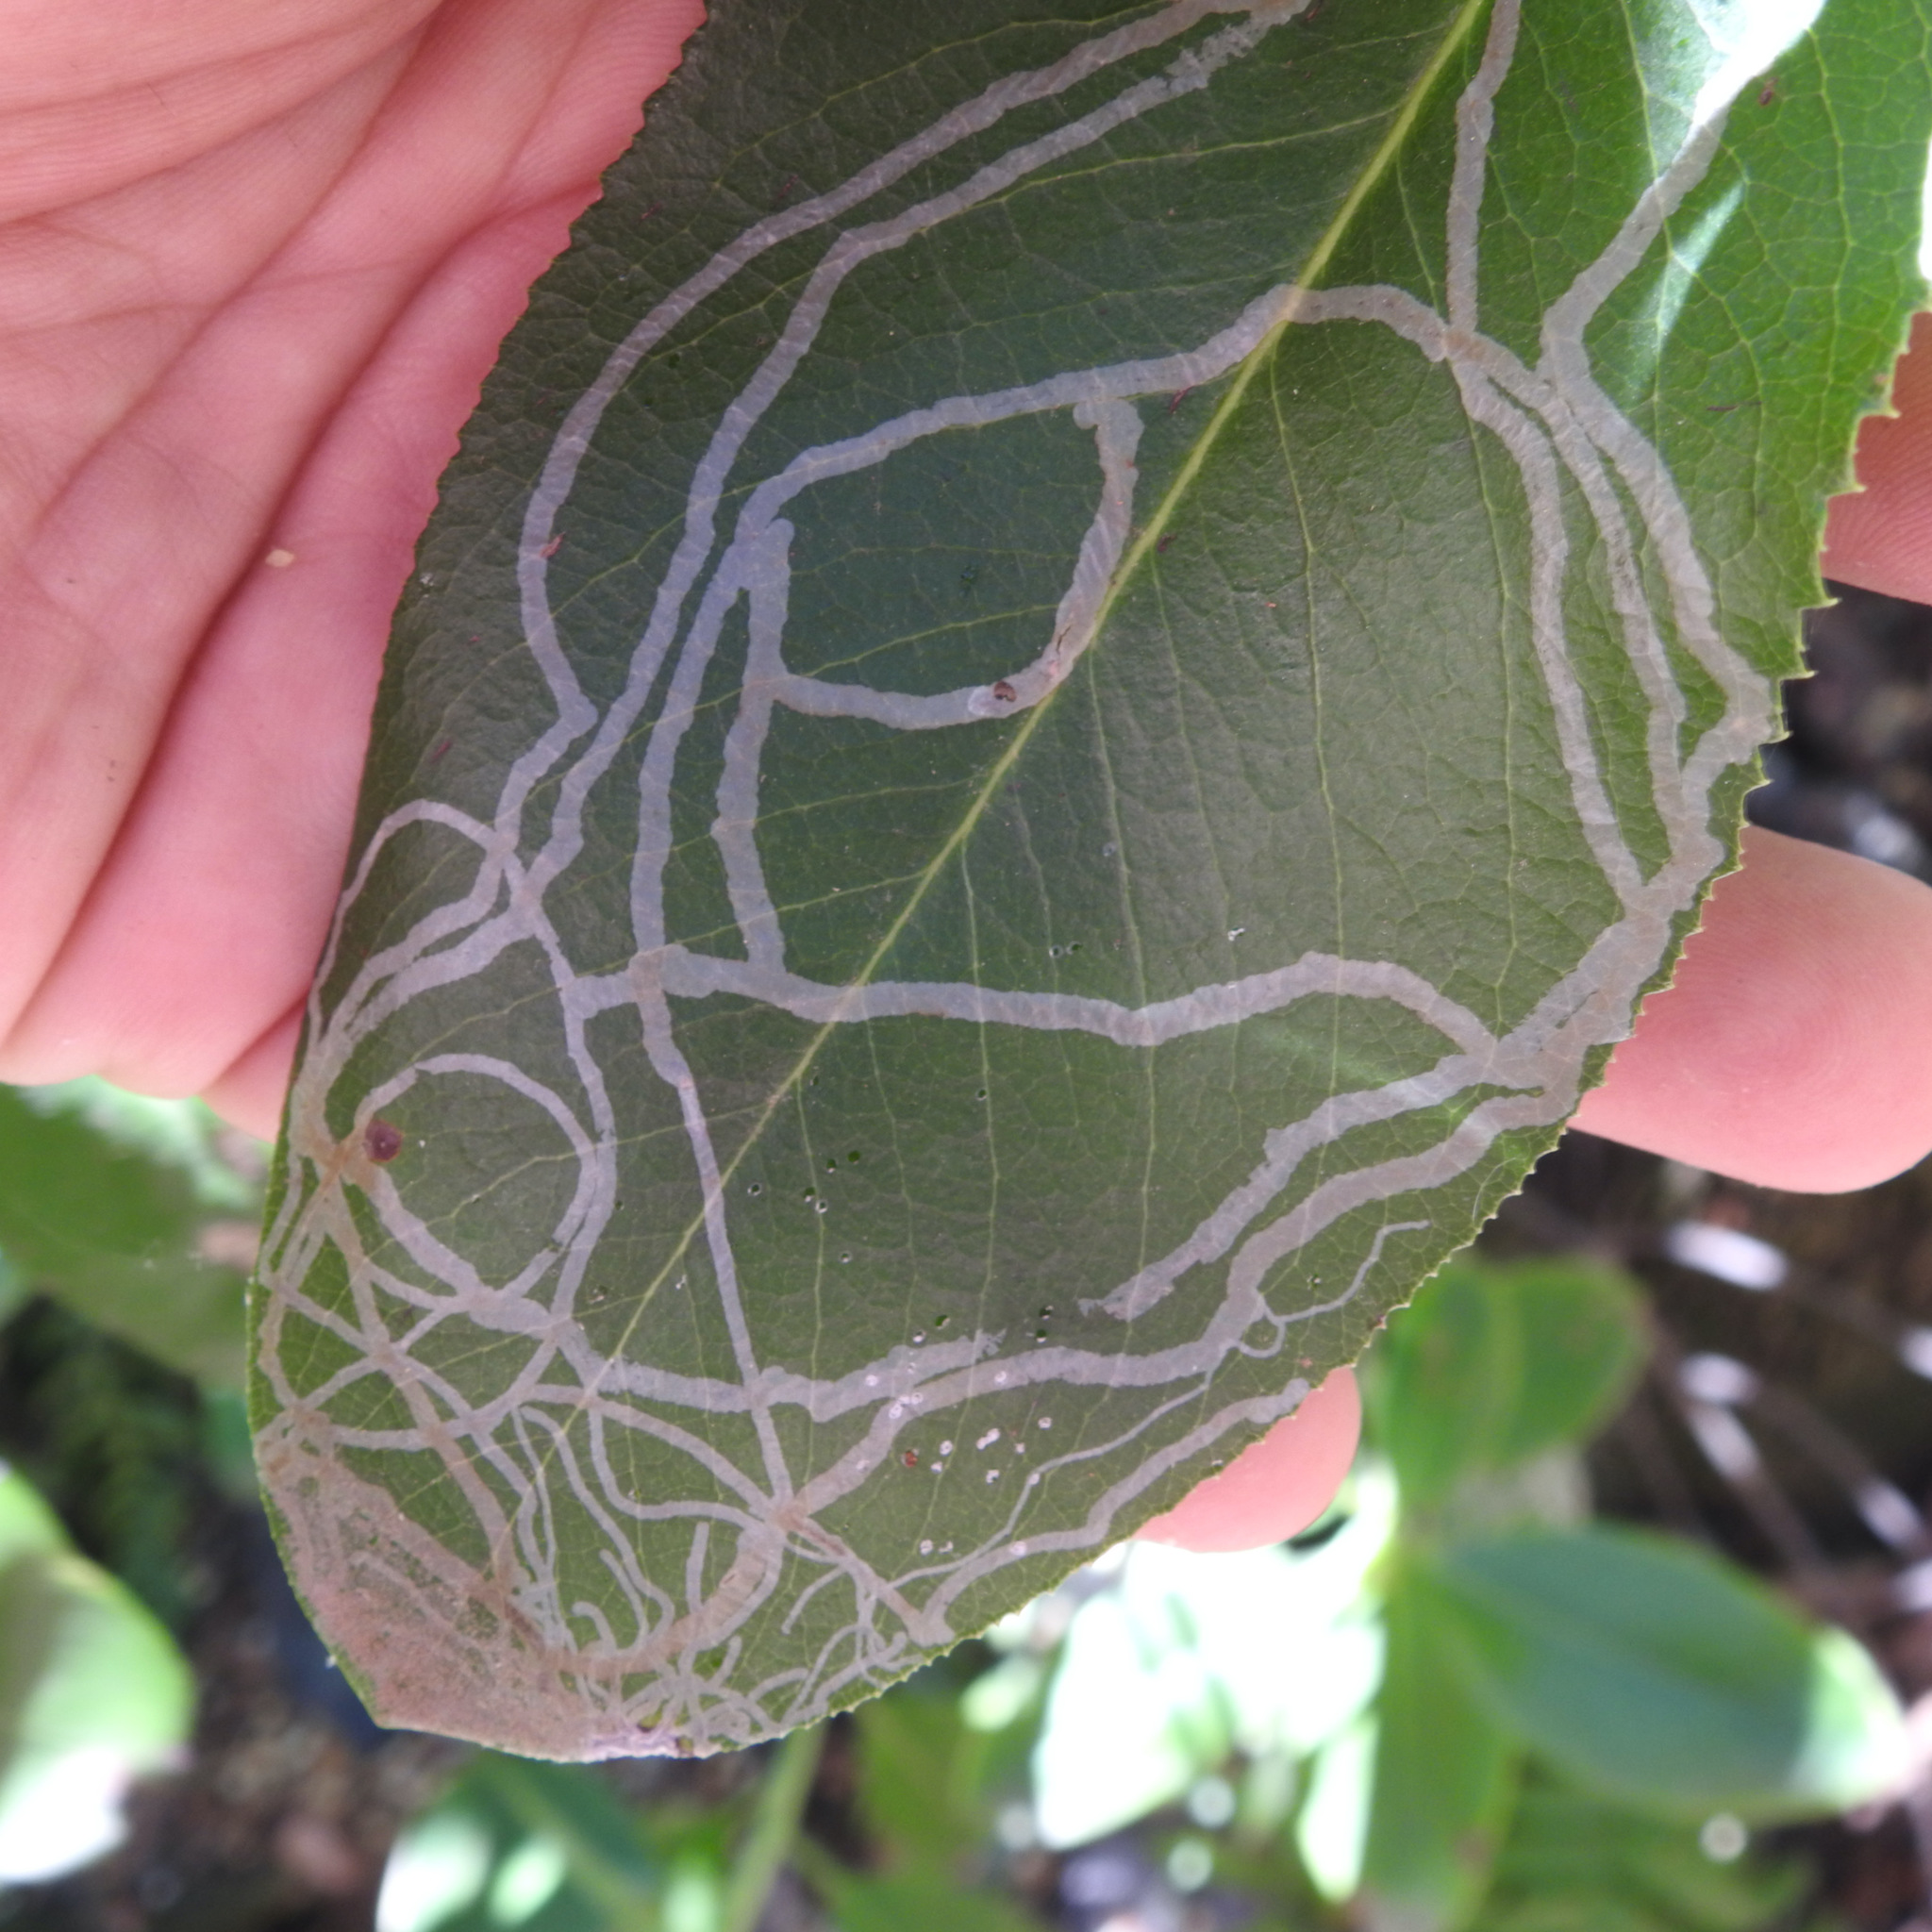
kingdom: Animalia
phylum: Arthropoda
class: Insecta
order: Lepidoptera
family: Gracillariidae
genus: Marmara
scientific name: Marmara arbutiella
